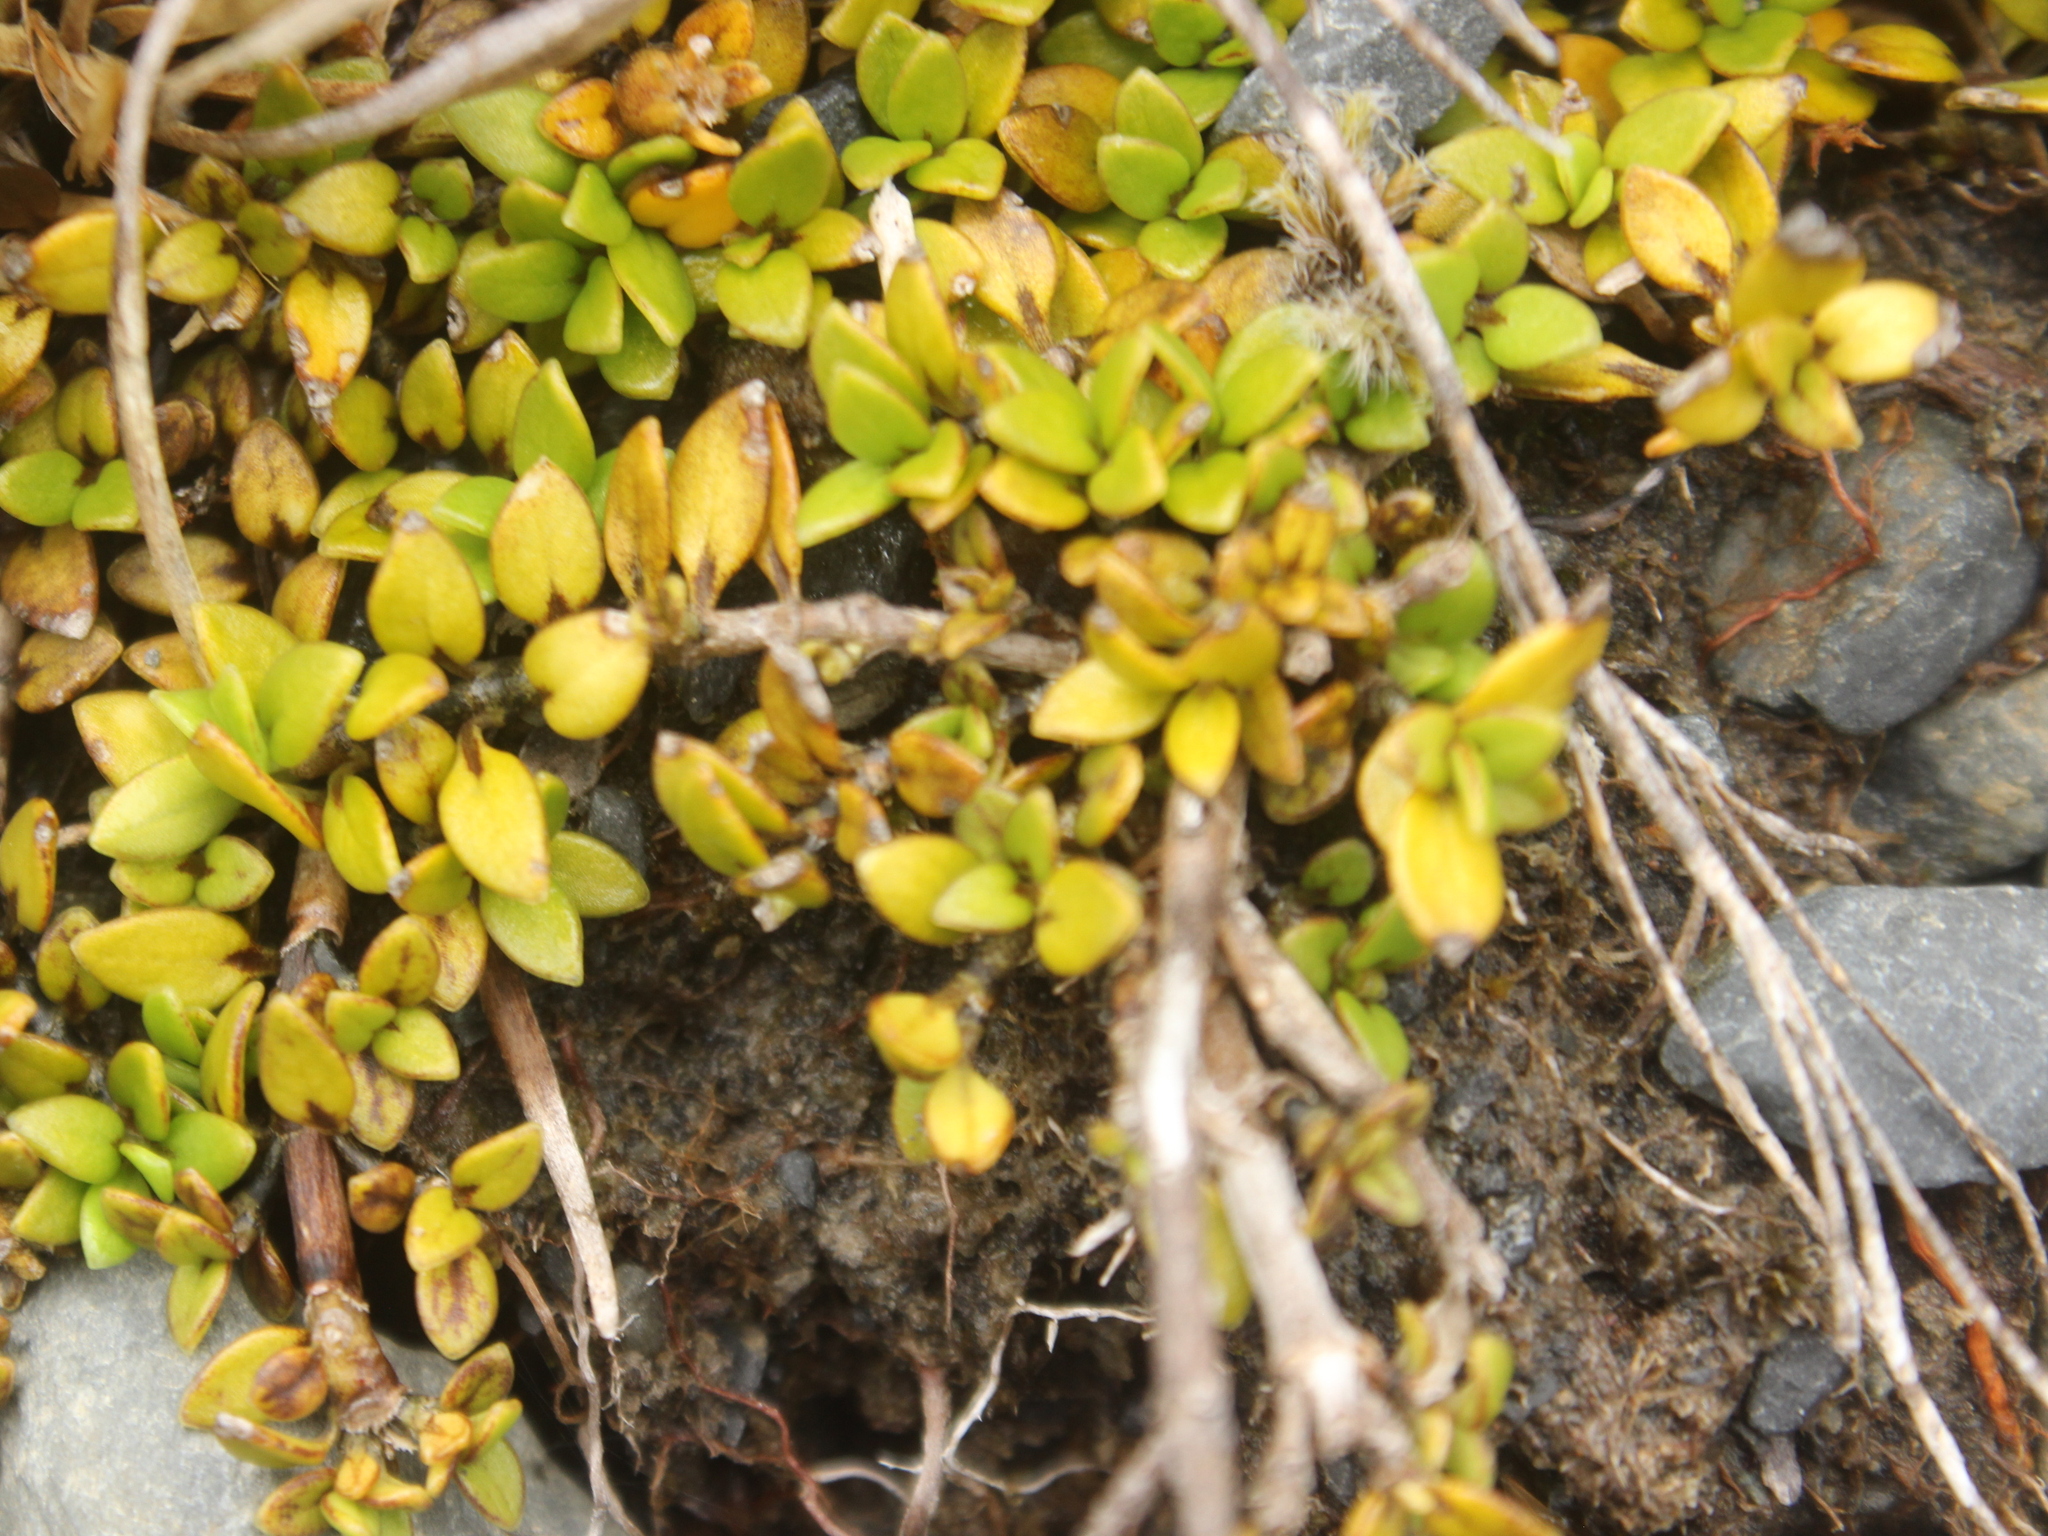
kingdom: Plantae
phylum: Tracheophyta
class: Magnoliopsida
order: Gentianales
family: Rubiaceae
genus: Coprosma
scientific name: Coprosma perpusilla
